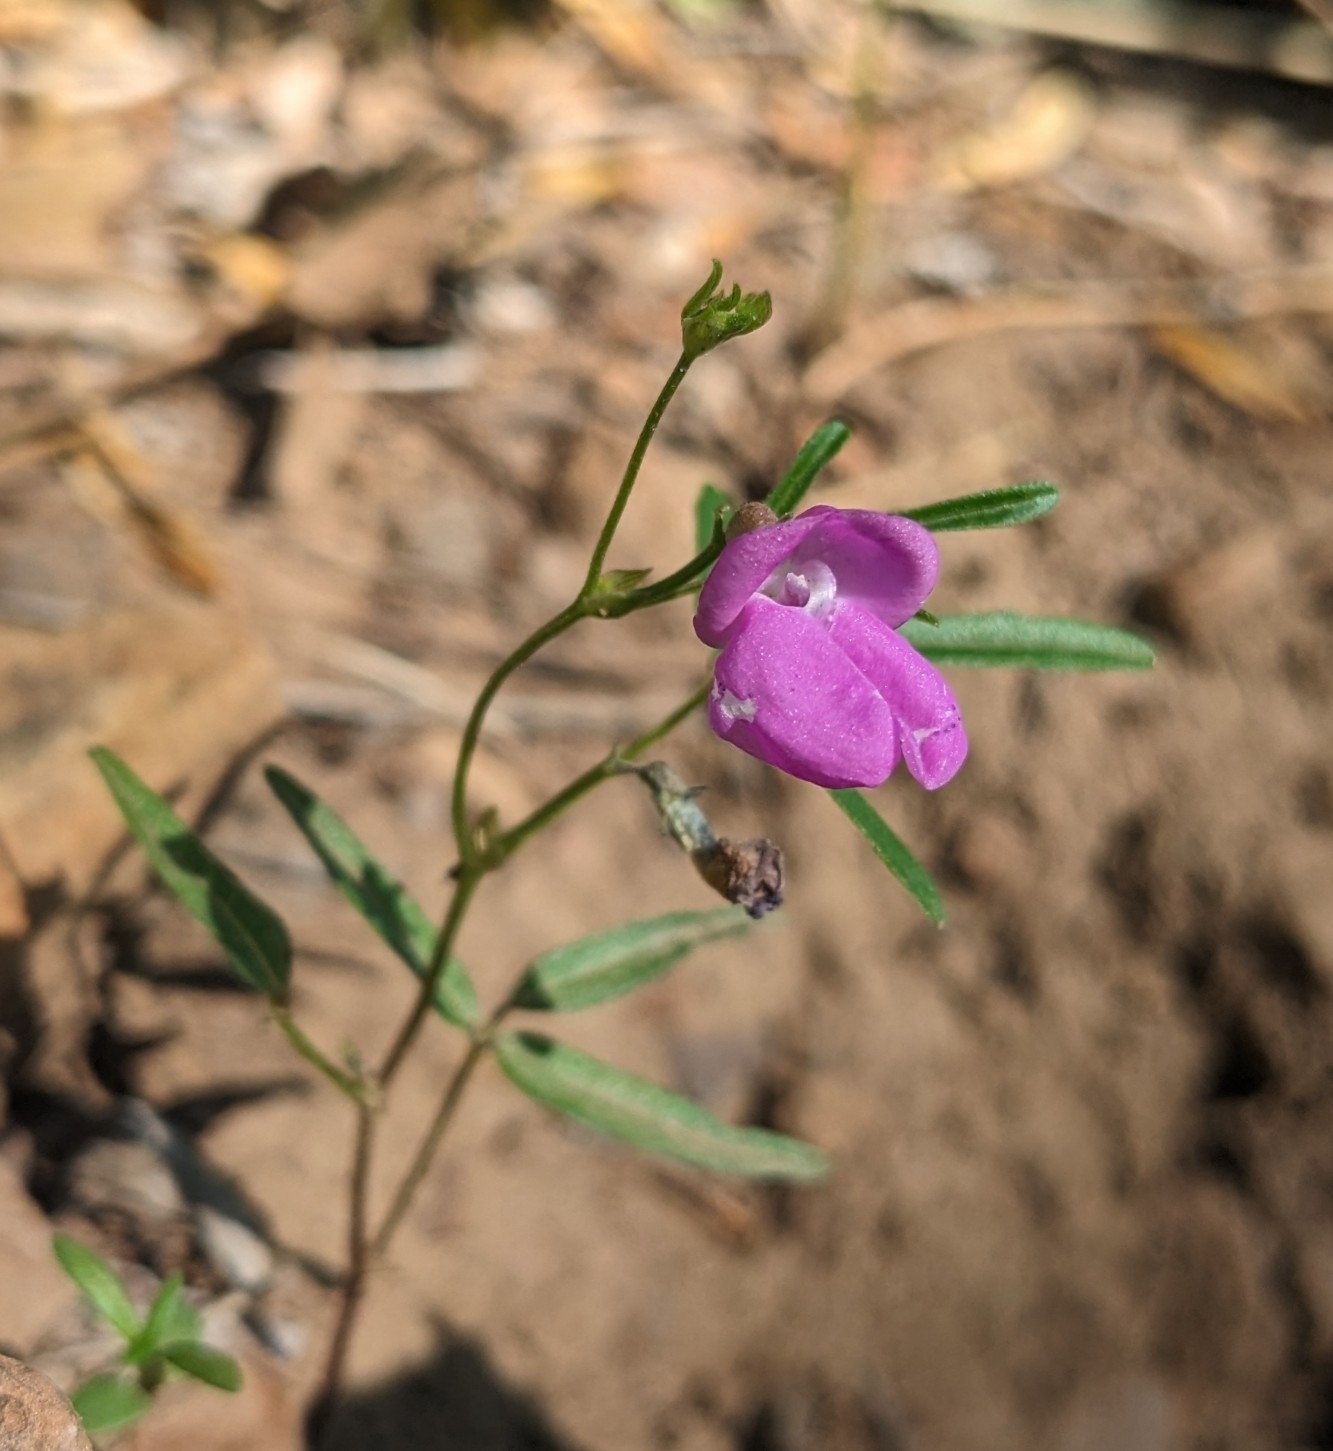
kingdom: Plantae
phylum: Tracheophyta
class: Magnoliopsida
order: Fabales
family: Fabaceae
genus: Phaseolus
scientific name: Phaseolus parvulus
